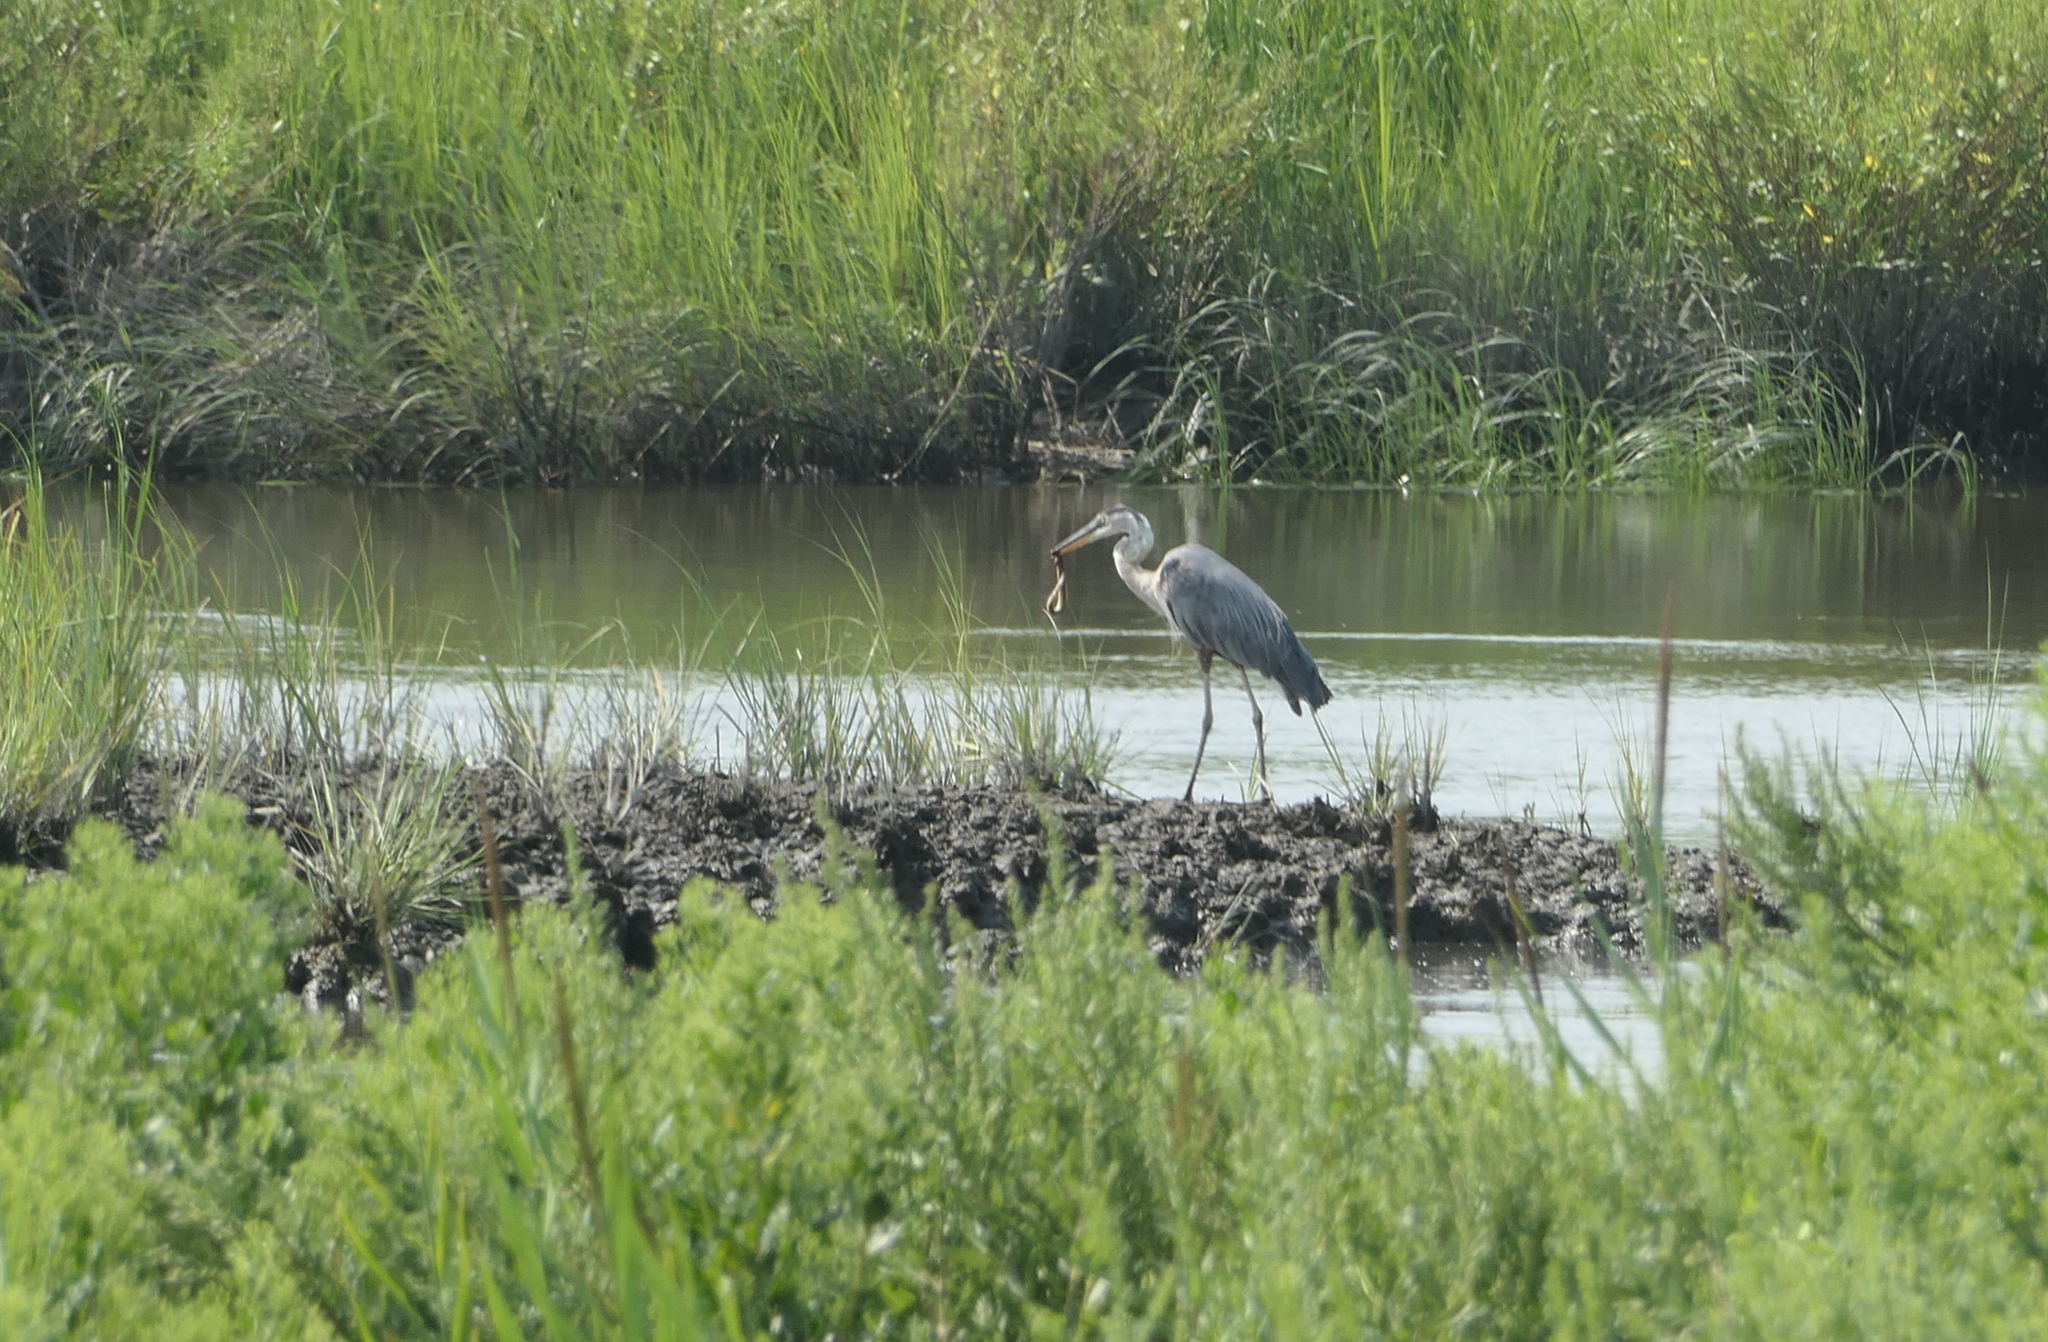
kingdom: Animalia
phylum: Chordata
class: Aves
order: Pelecaniformes
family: Ardeidae
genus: Ardea
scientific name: Ardea herodias
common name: Great blue heron
